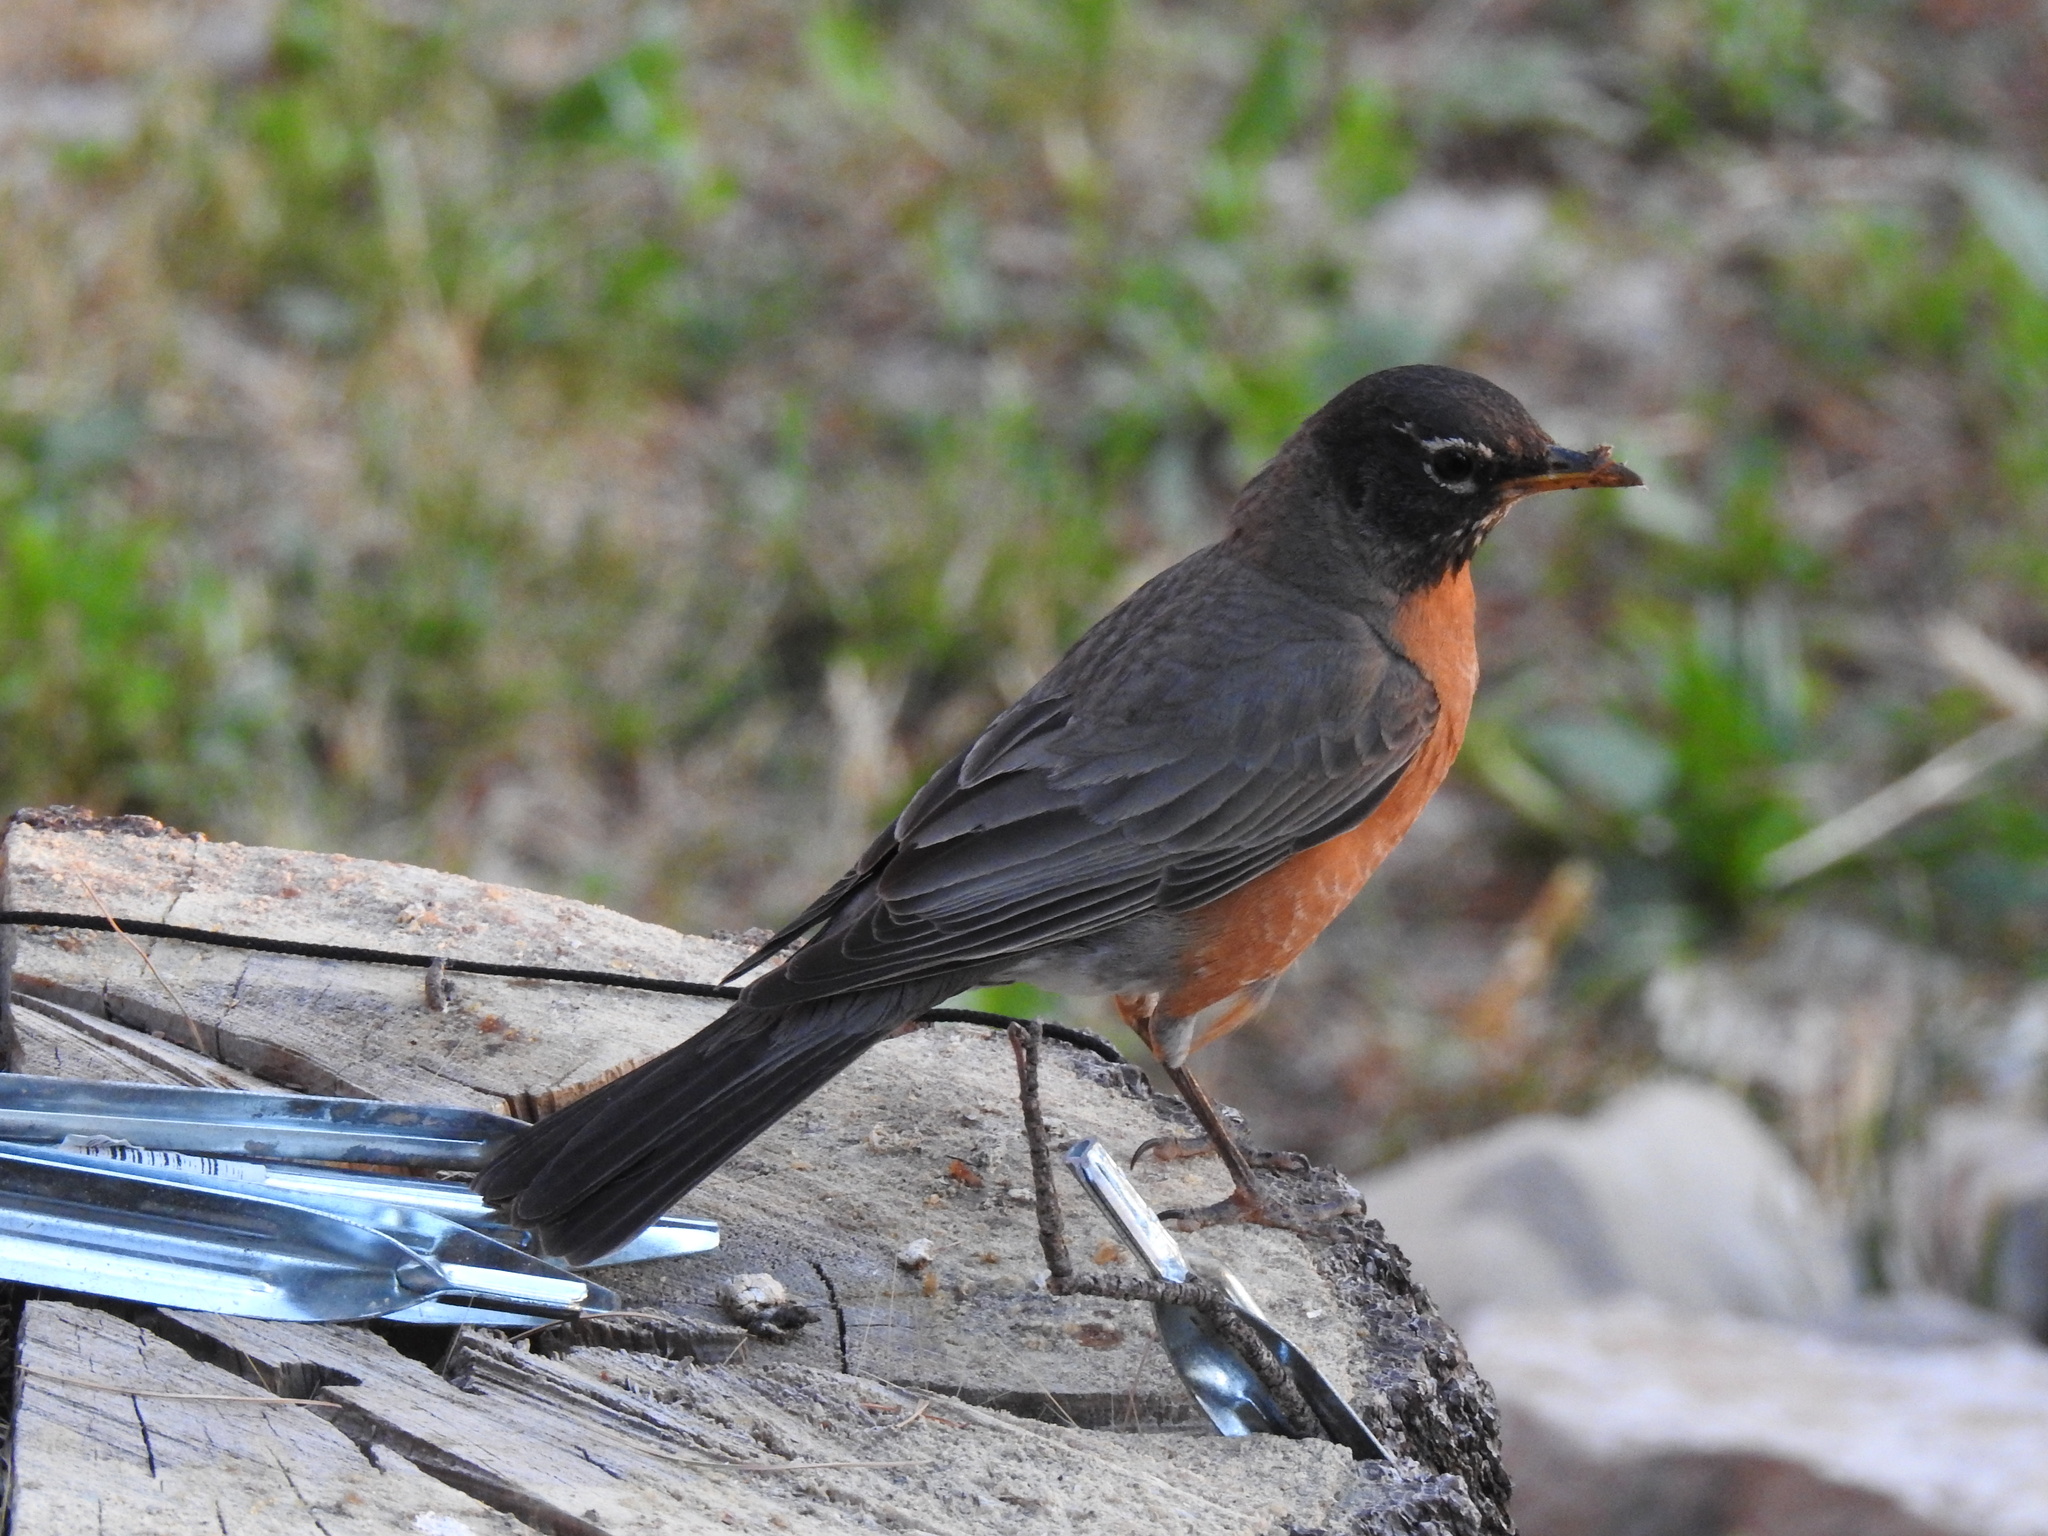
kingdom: Animalia
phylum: Chordata
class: Aves
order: Passeriformes
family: Turdidae
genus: Turdus
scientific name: Turdus migratorius
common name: American robin
